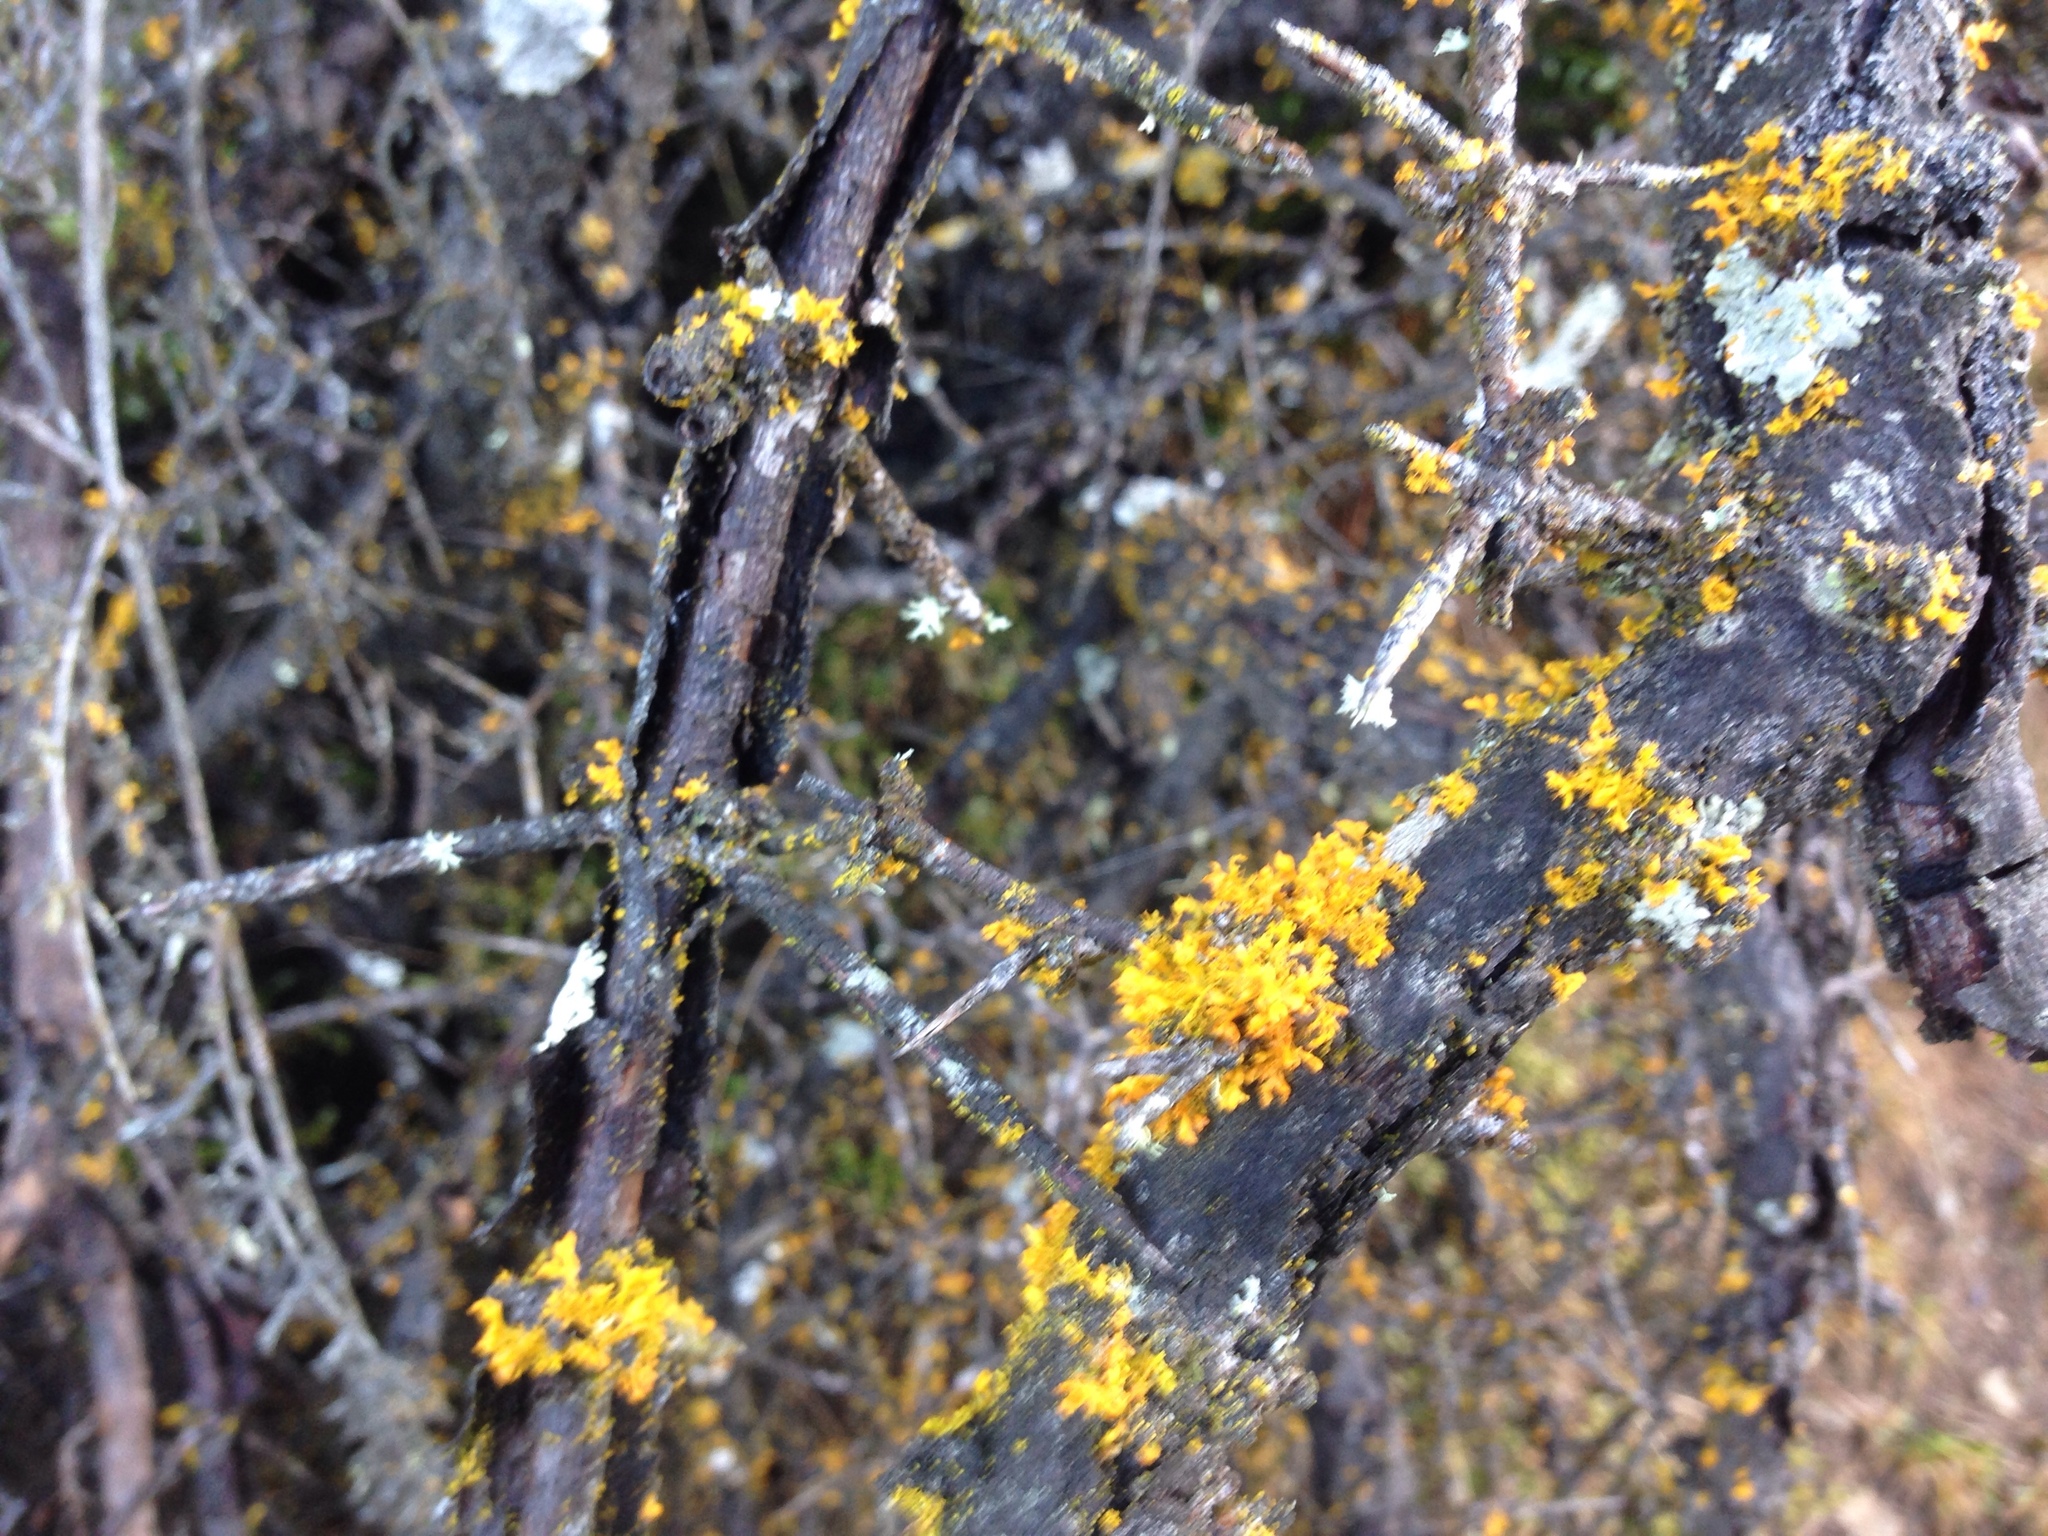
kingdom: Fungi
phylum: Ascomycota
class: Lecanoromycetes
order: Teloschistales
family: Teloschistaceae
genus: Teloschistes
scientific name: Teloschistes velifer
